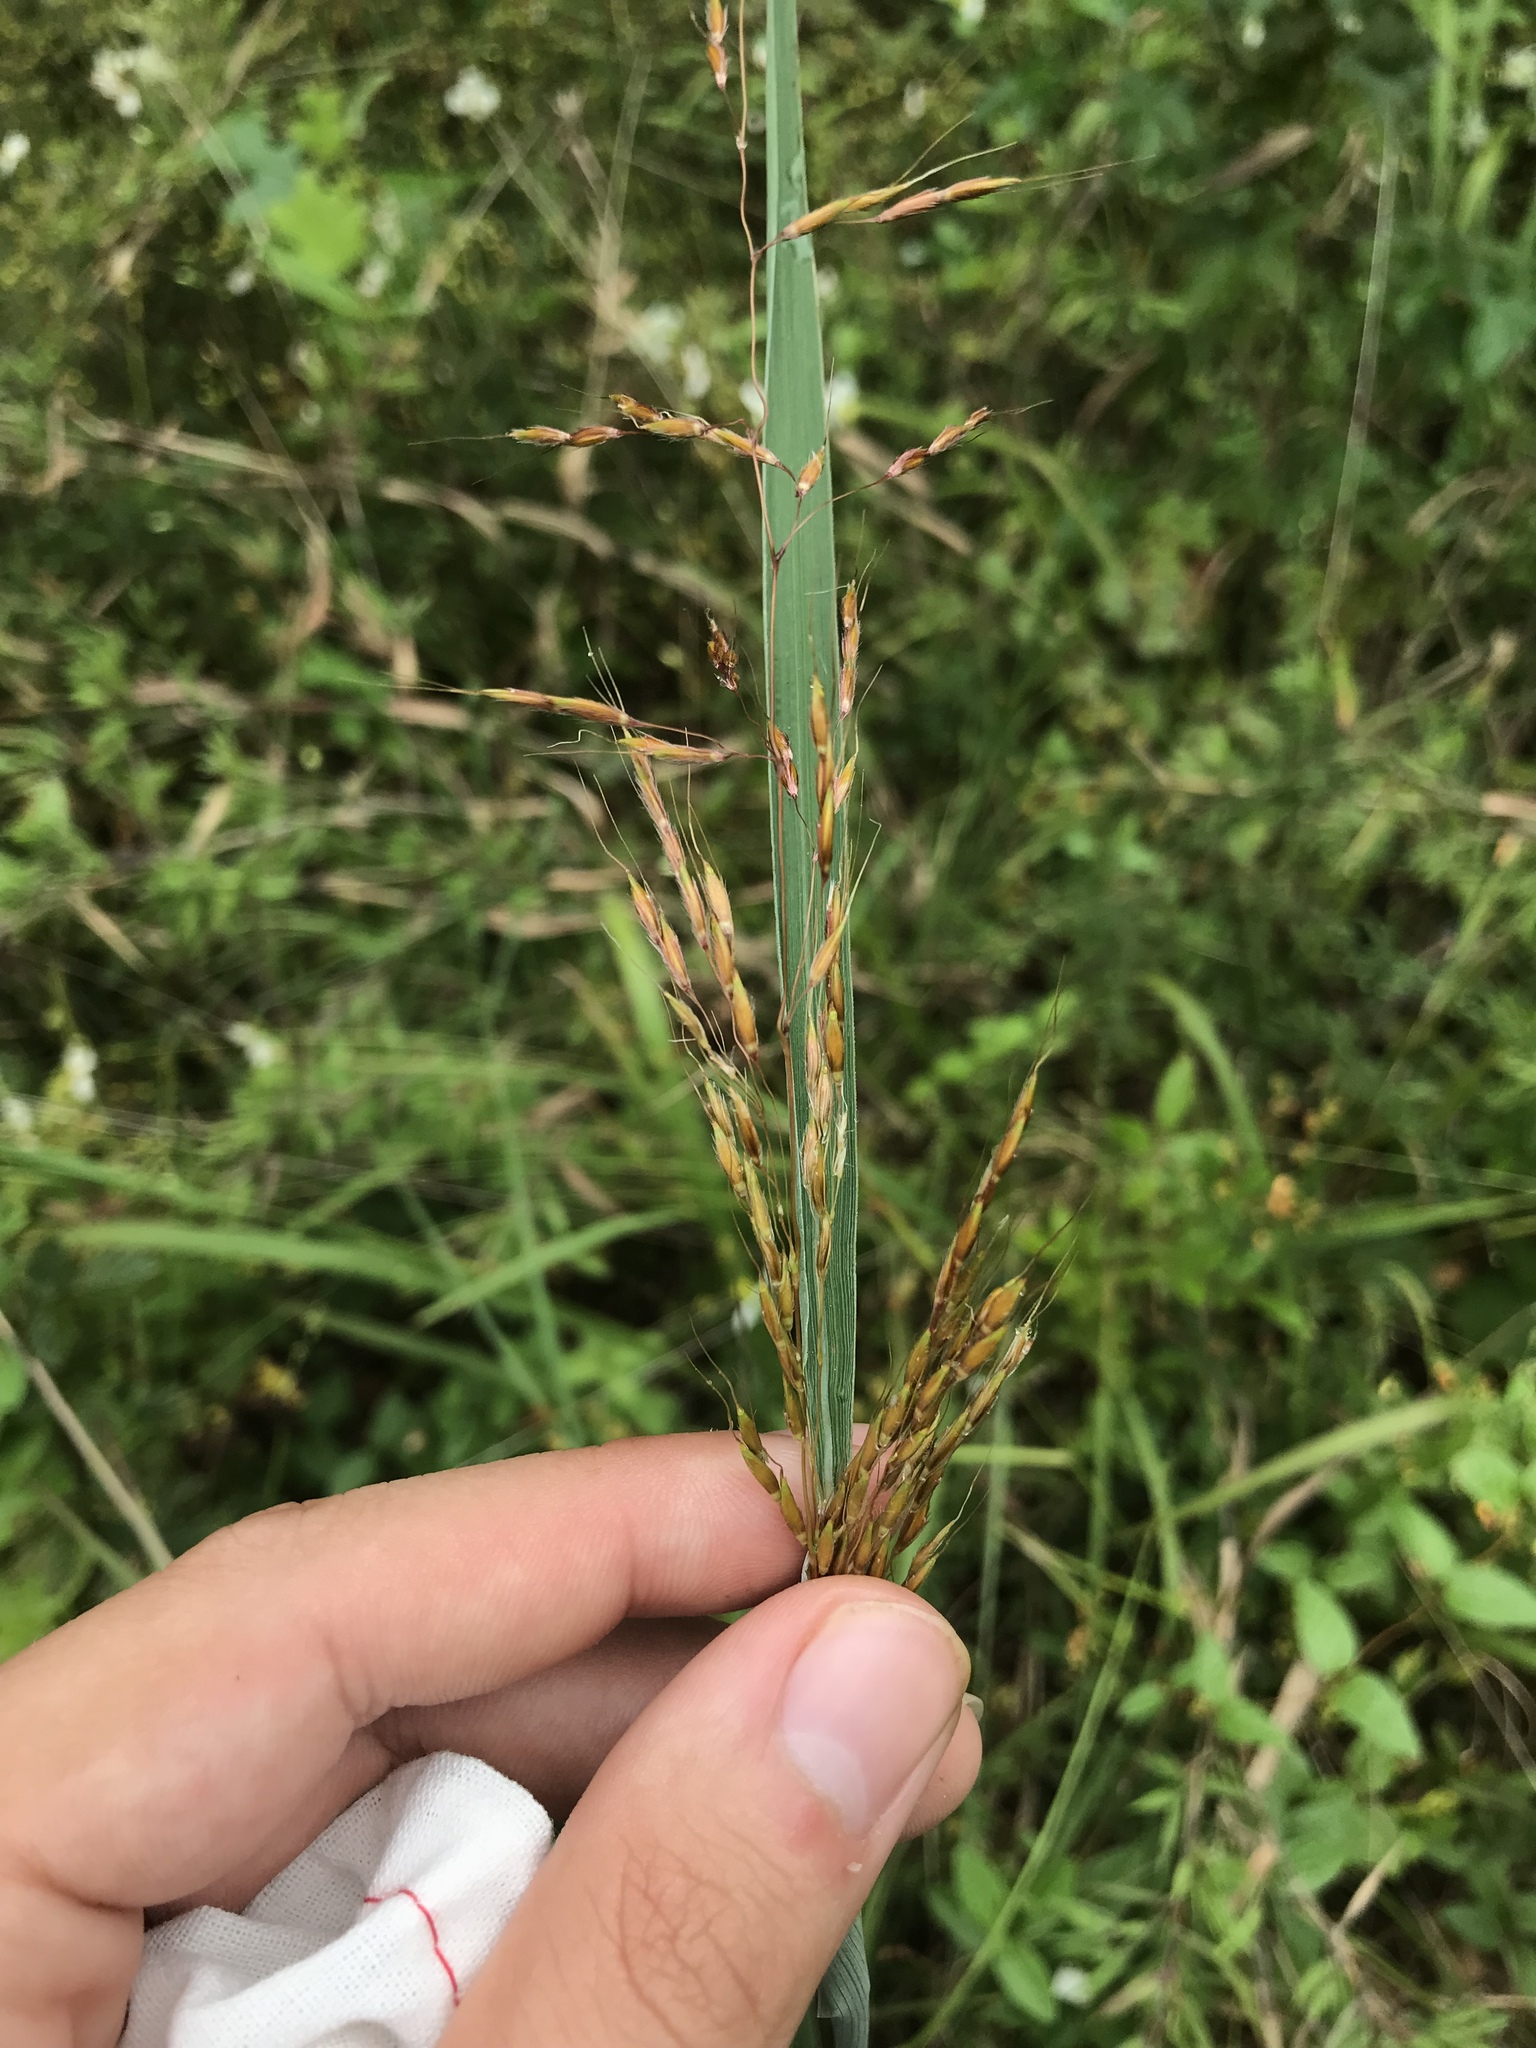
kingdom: Plantae
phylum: Tracheophyta
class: Liliopsida
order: Poales
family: Poaceae
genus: Sorghastrum
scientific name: Sorghastrum nutans
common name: Indian grass
